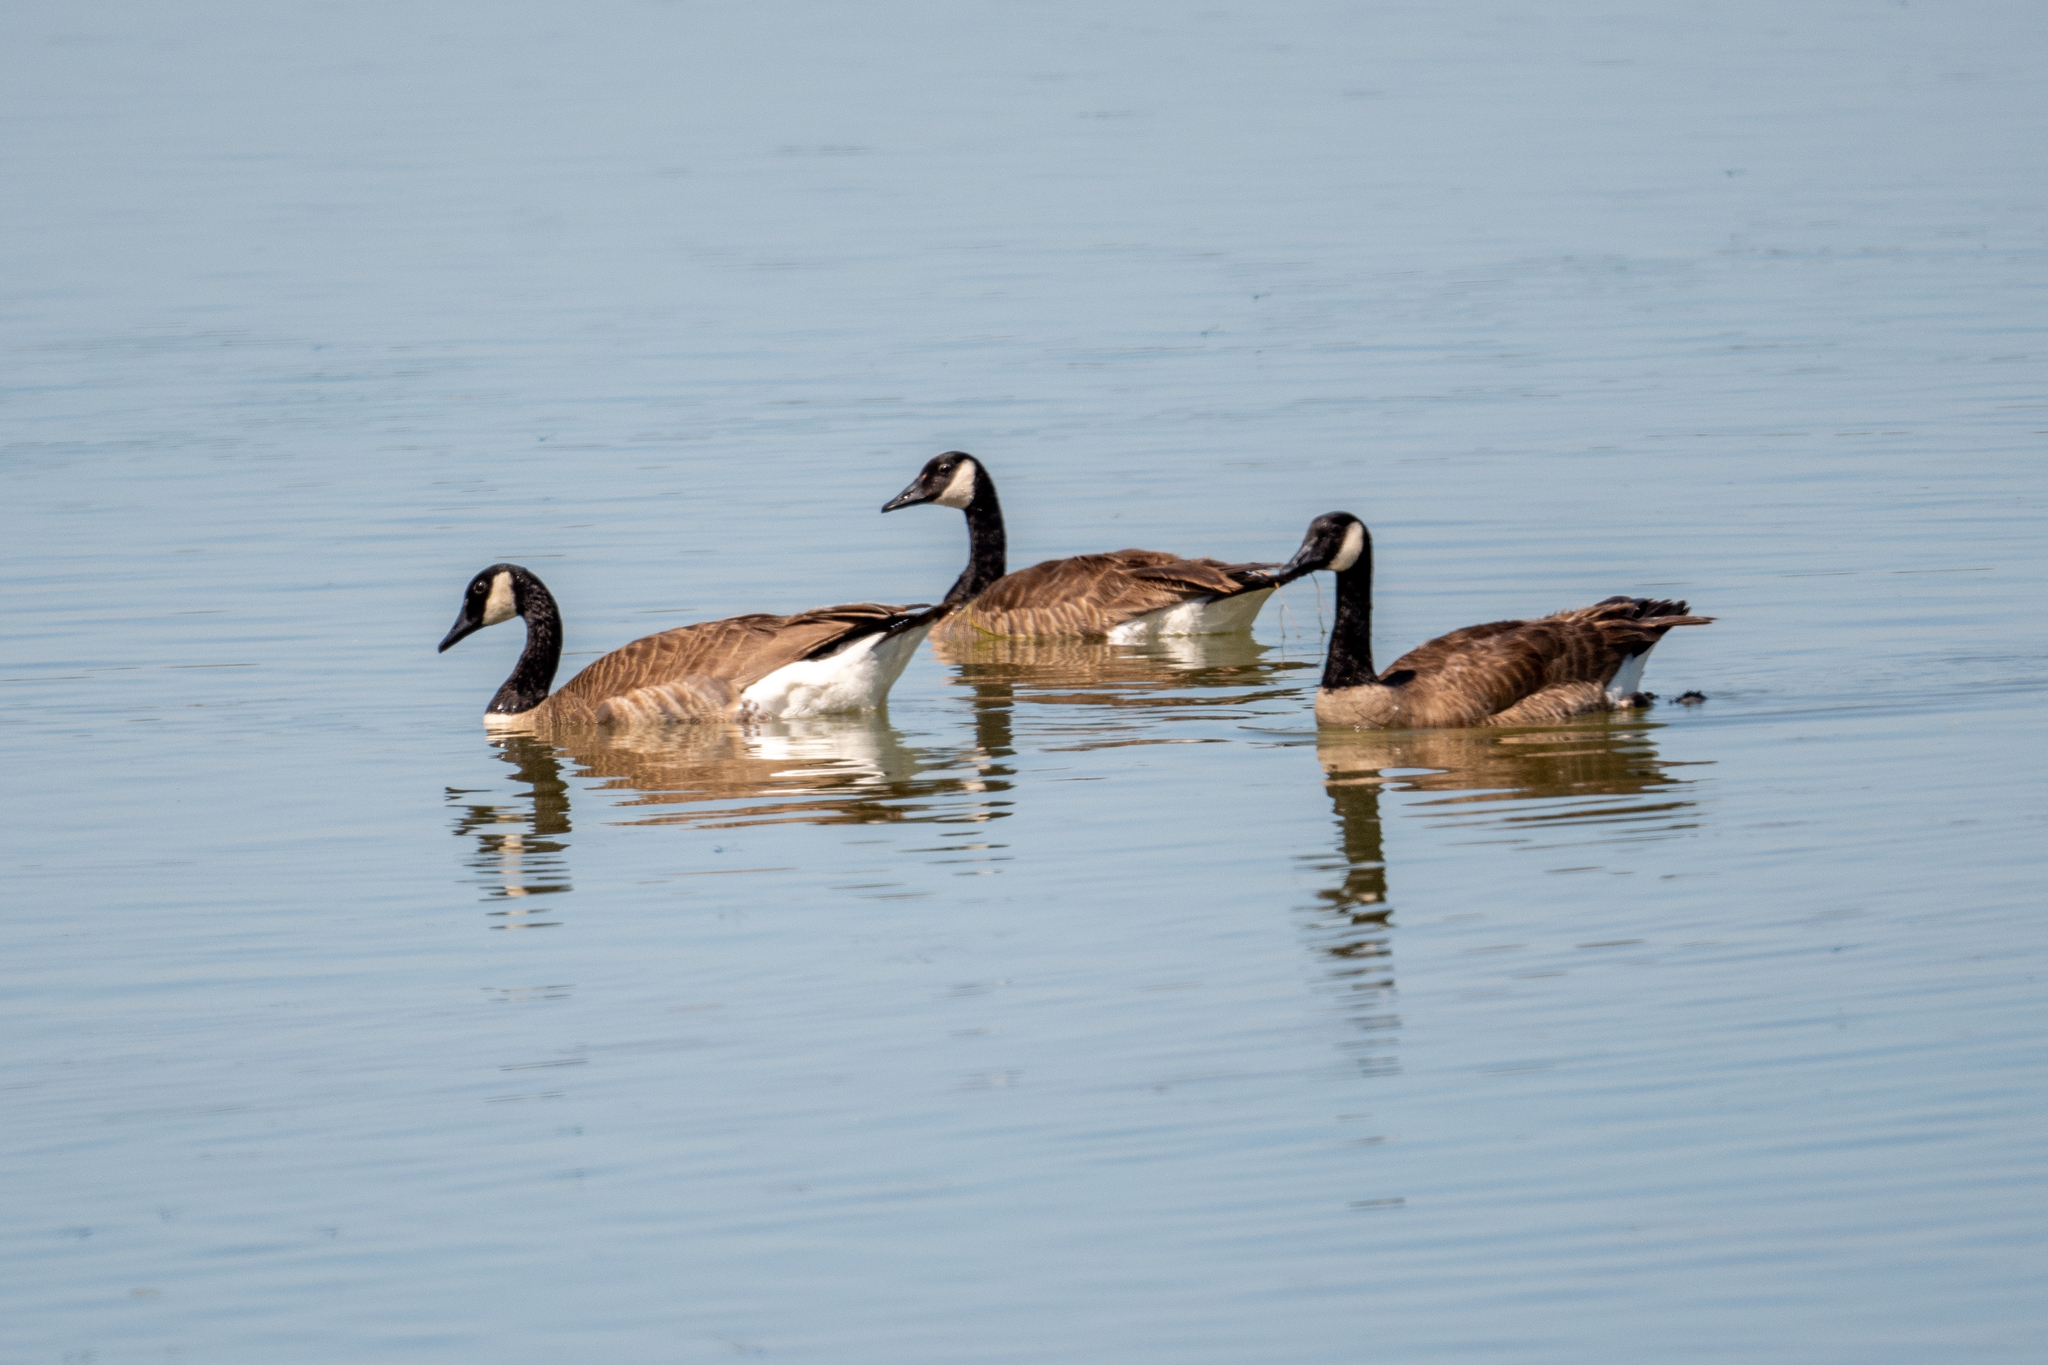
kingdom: Animalia
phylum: Chordata
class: Aves
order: Anseriformes
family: Anatidae
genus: Branta
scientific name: Branta canadensis
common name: Canada goose
